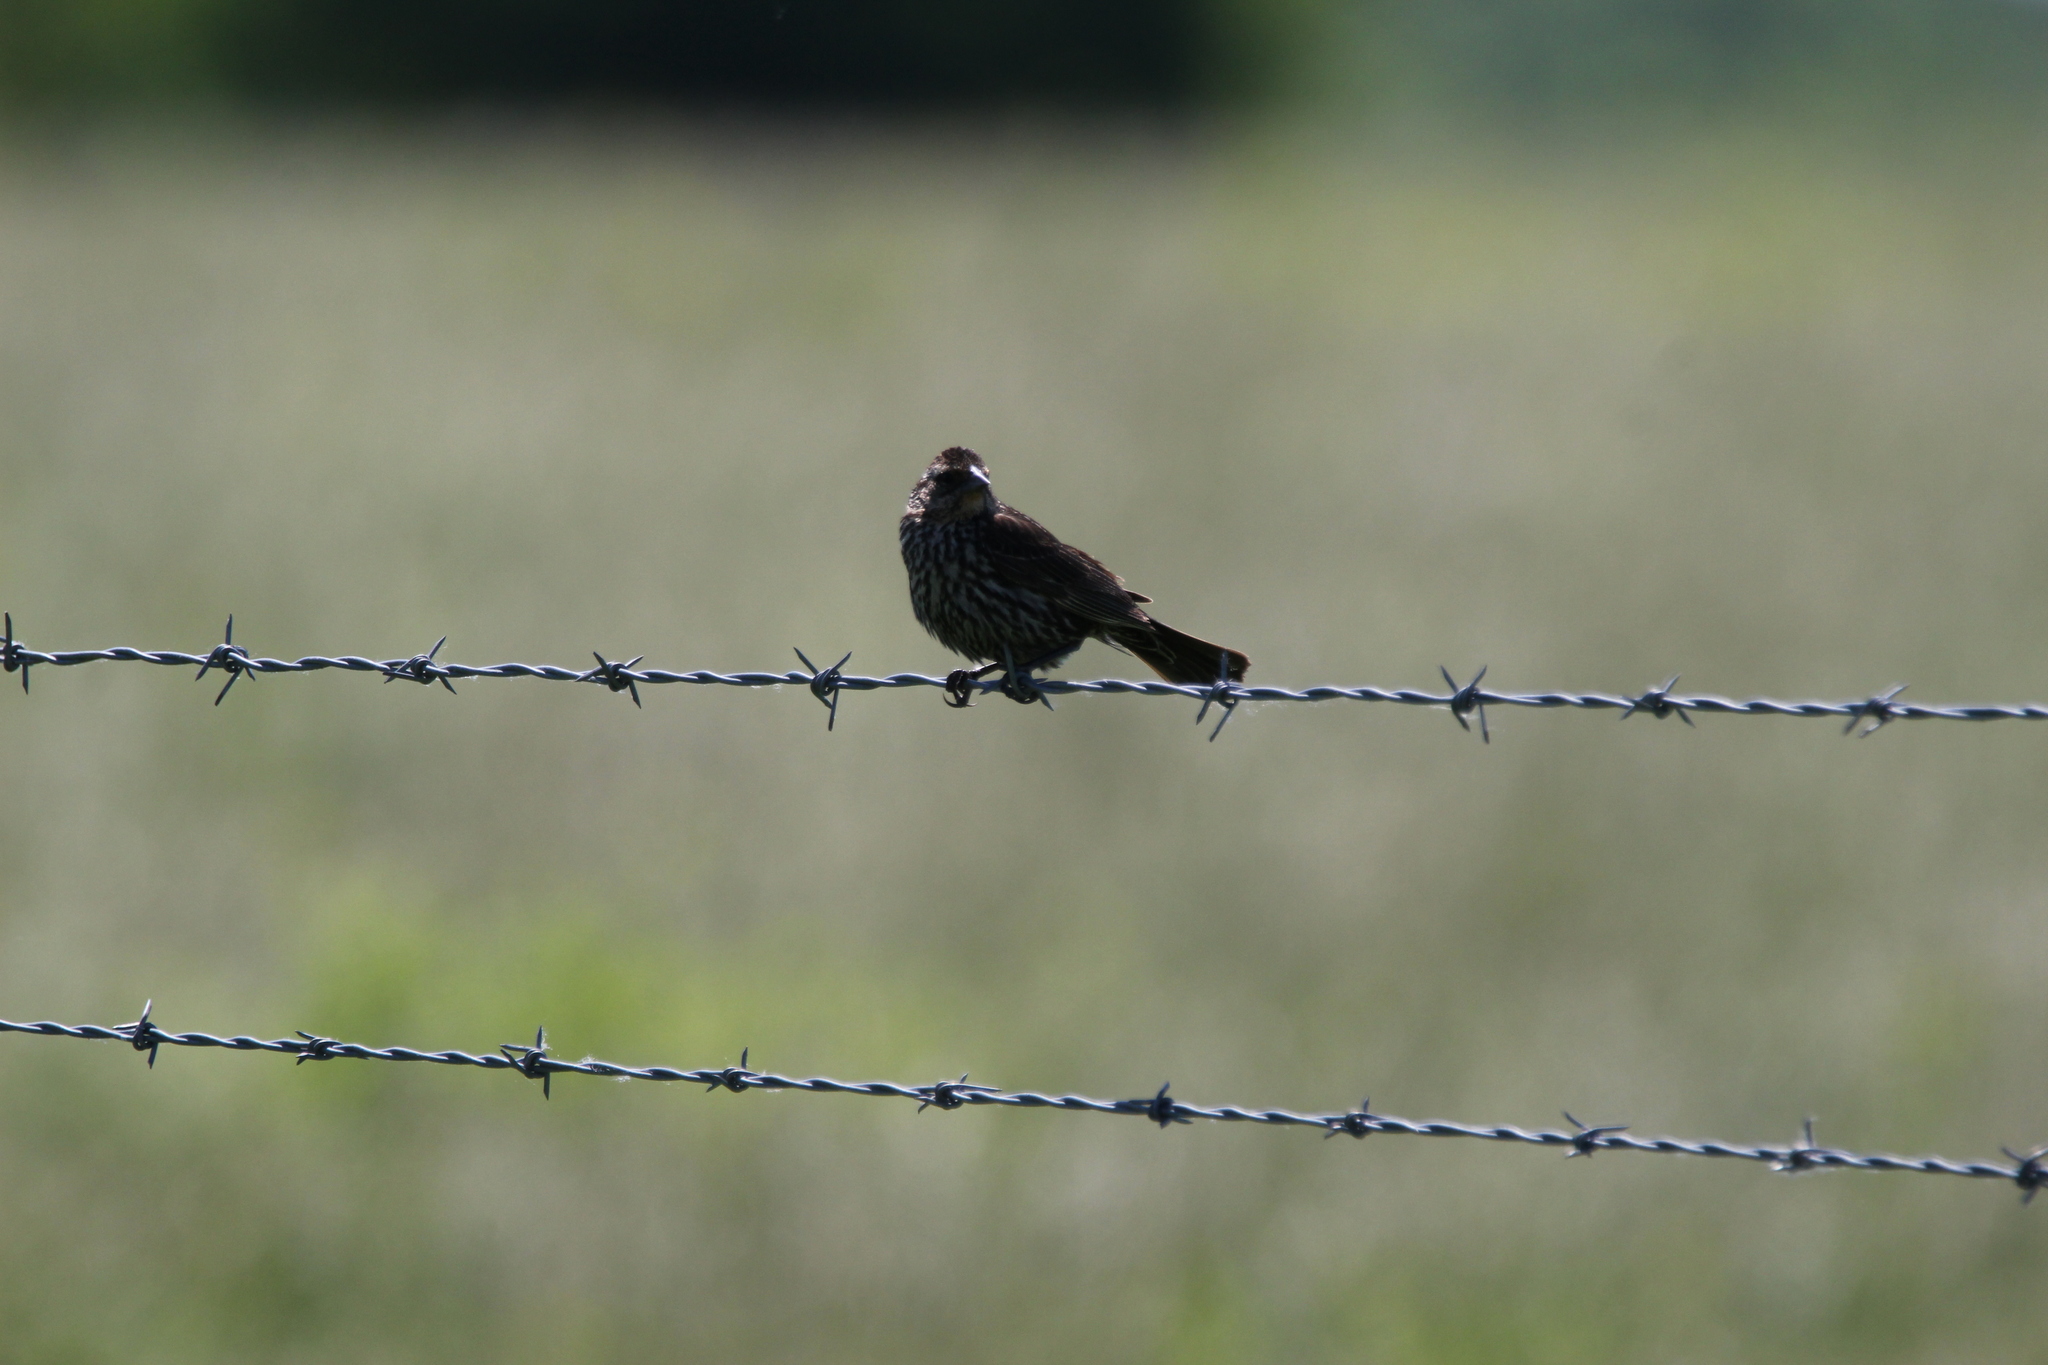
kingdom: Animalia
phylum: Chordata
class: Aves
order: Passeriformes
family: Icteridae
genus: Agelaius
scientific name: Agelaius phoeniceus
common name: Red-winged blackbird
